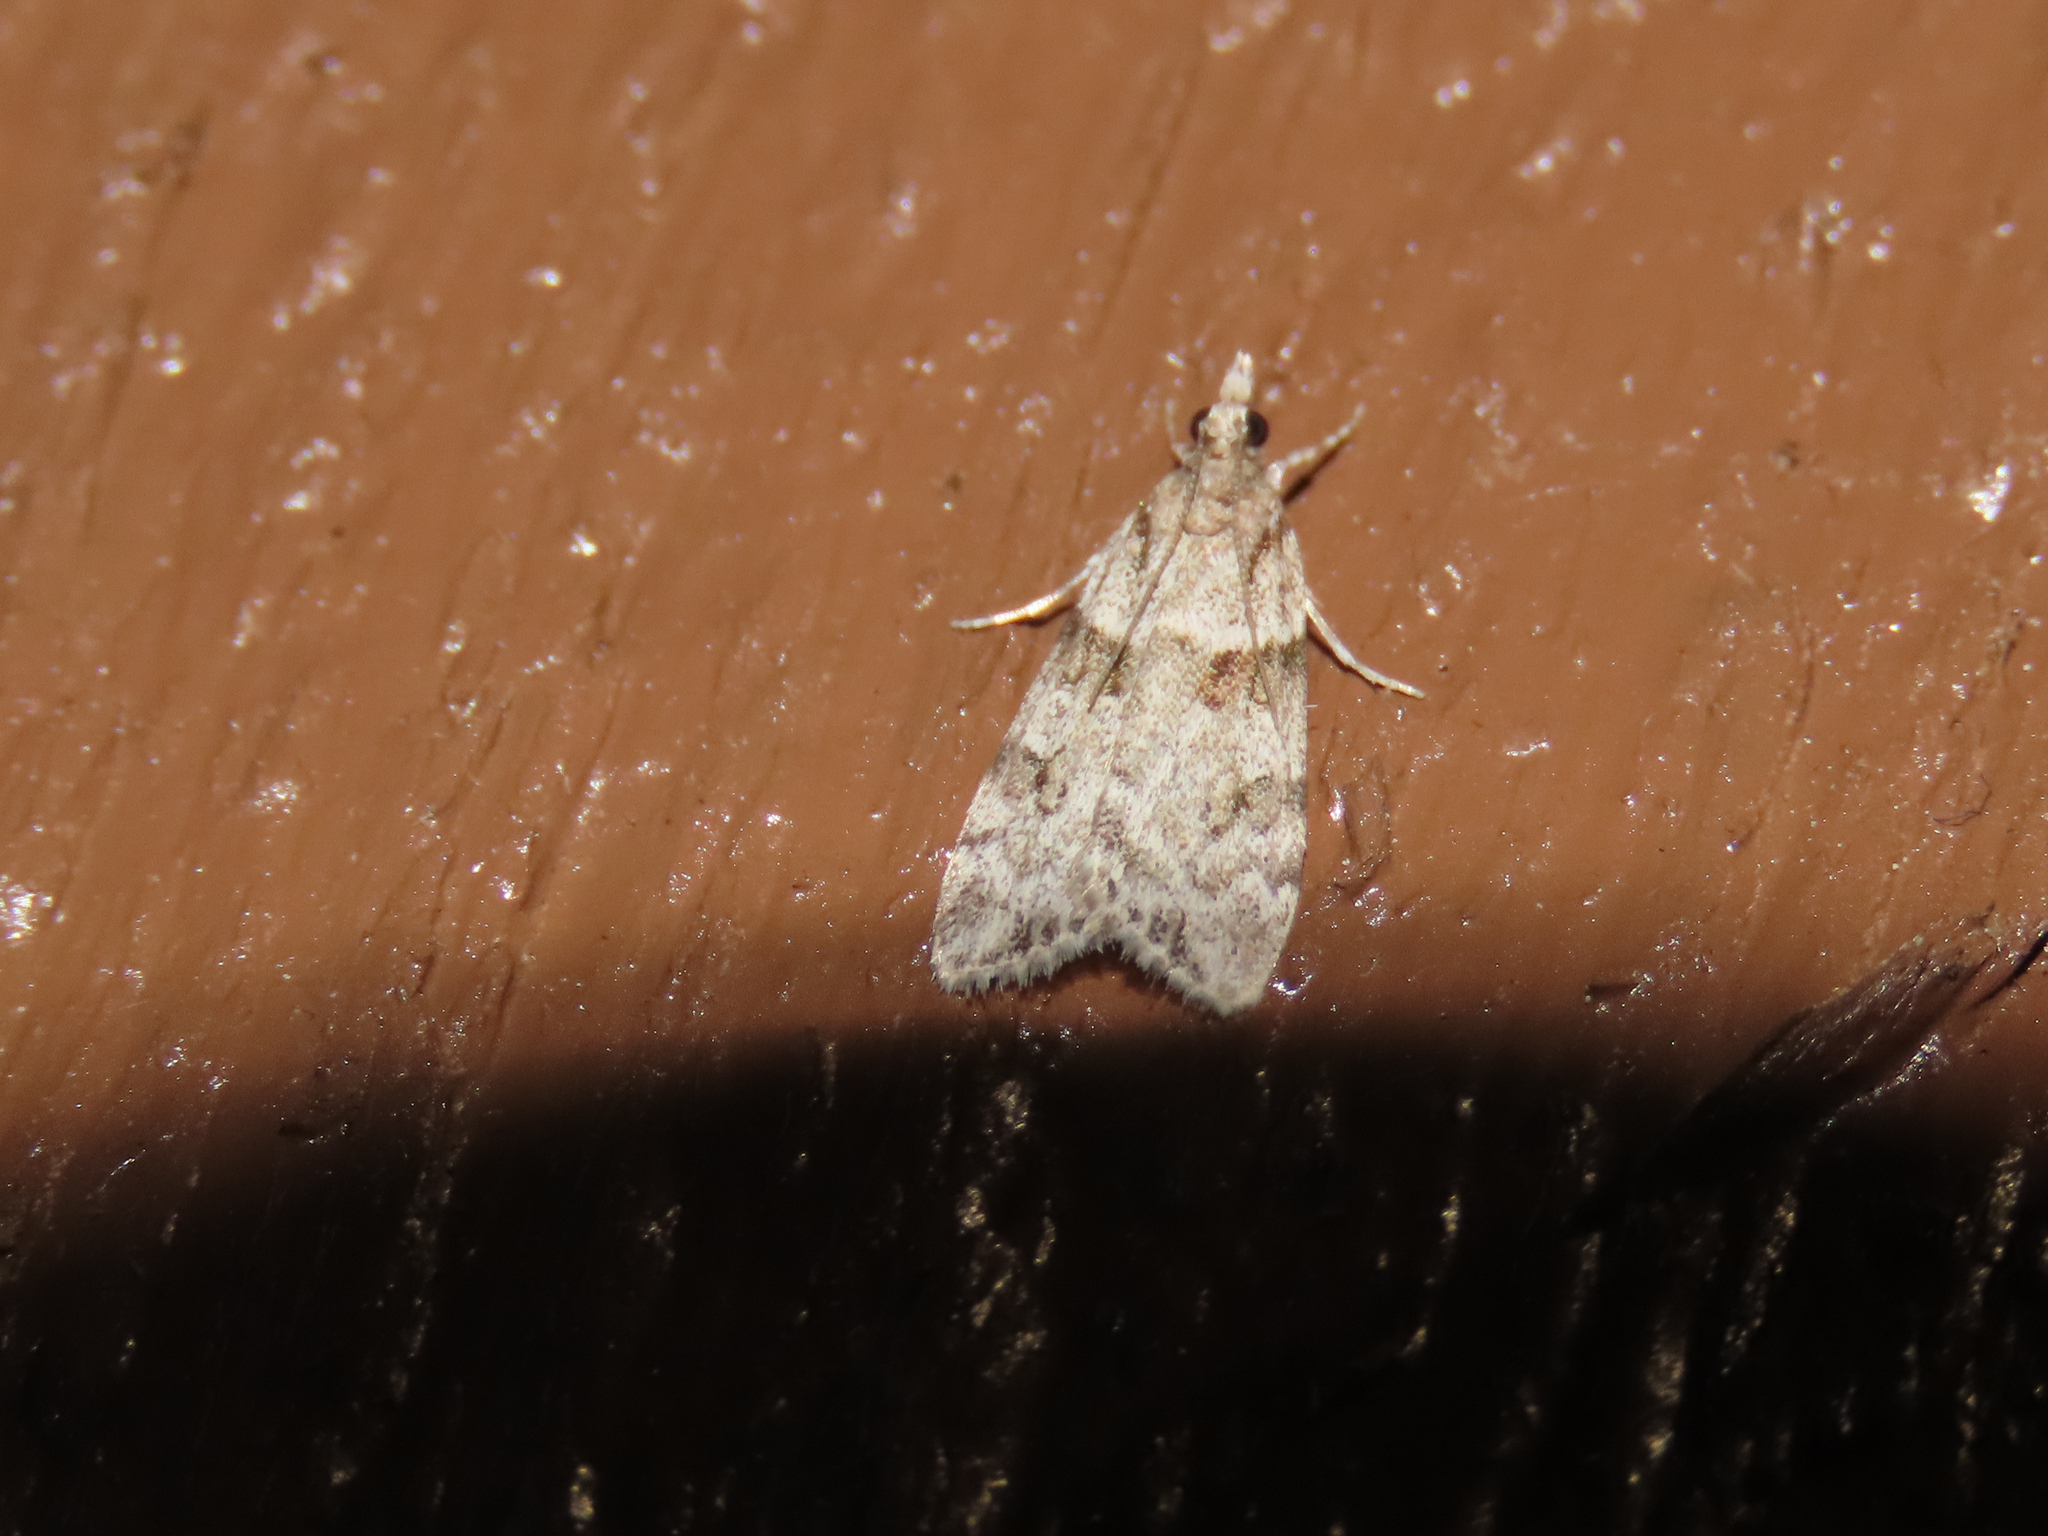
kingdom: Animalia
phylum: Arthropoda
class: Insecta
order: Lepidoptera
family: Crambidae
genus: Scoparia
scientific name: Scoparia biplagialis
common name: Double-striped scoparia moth
